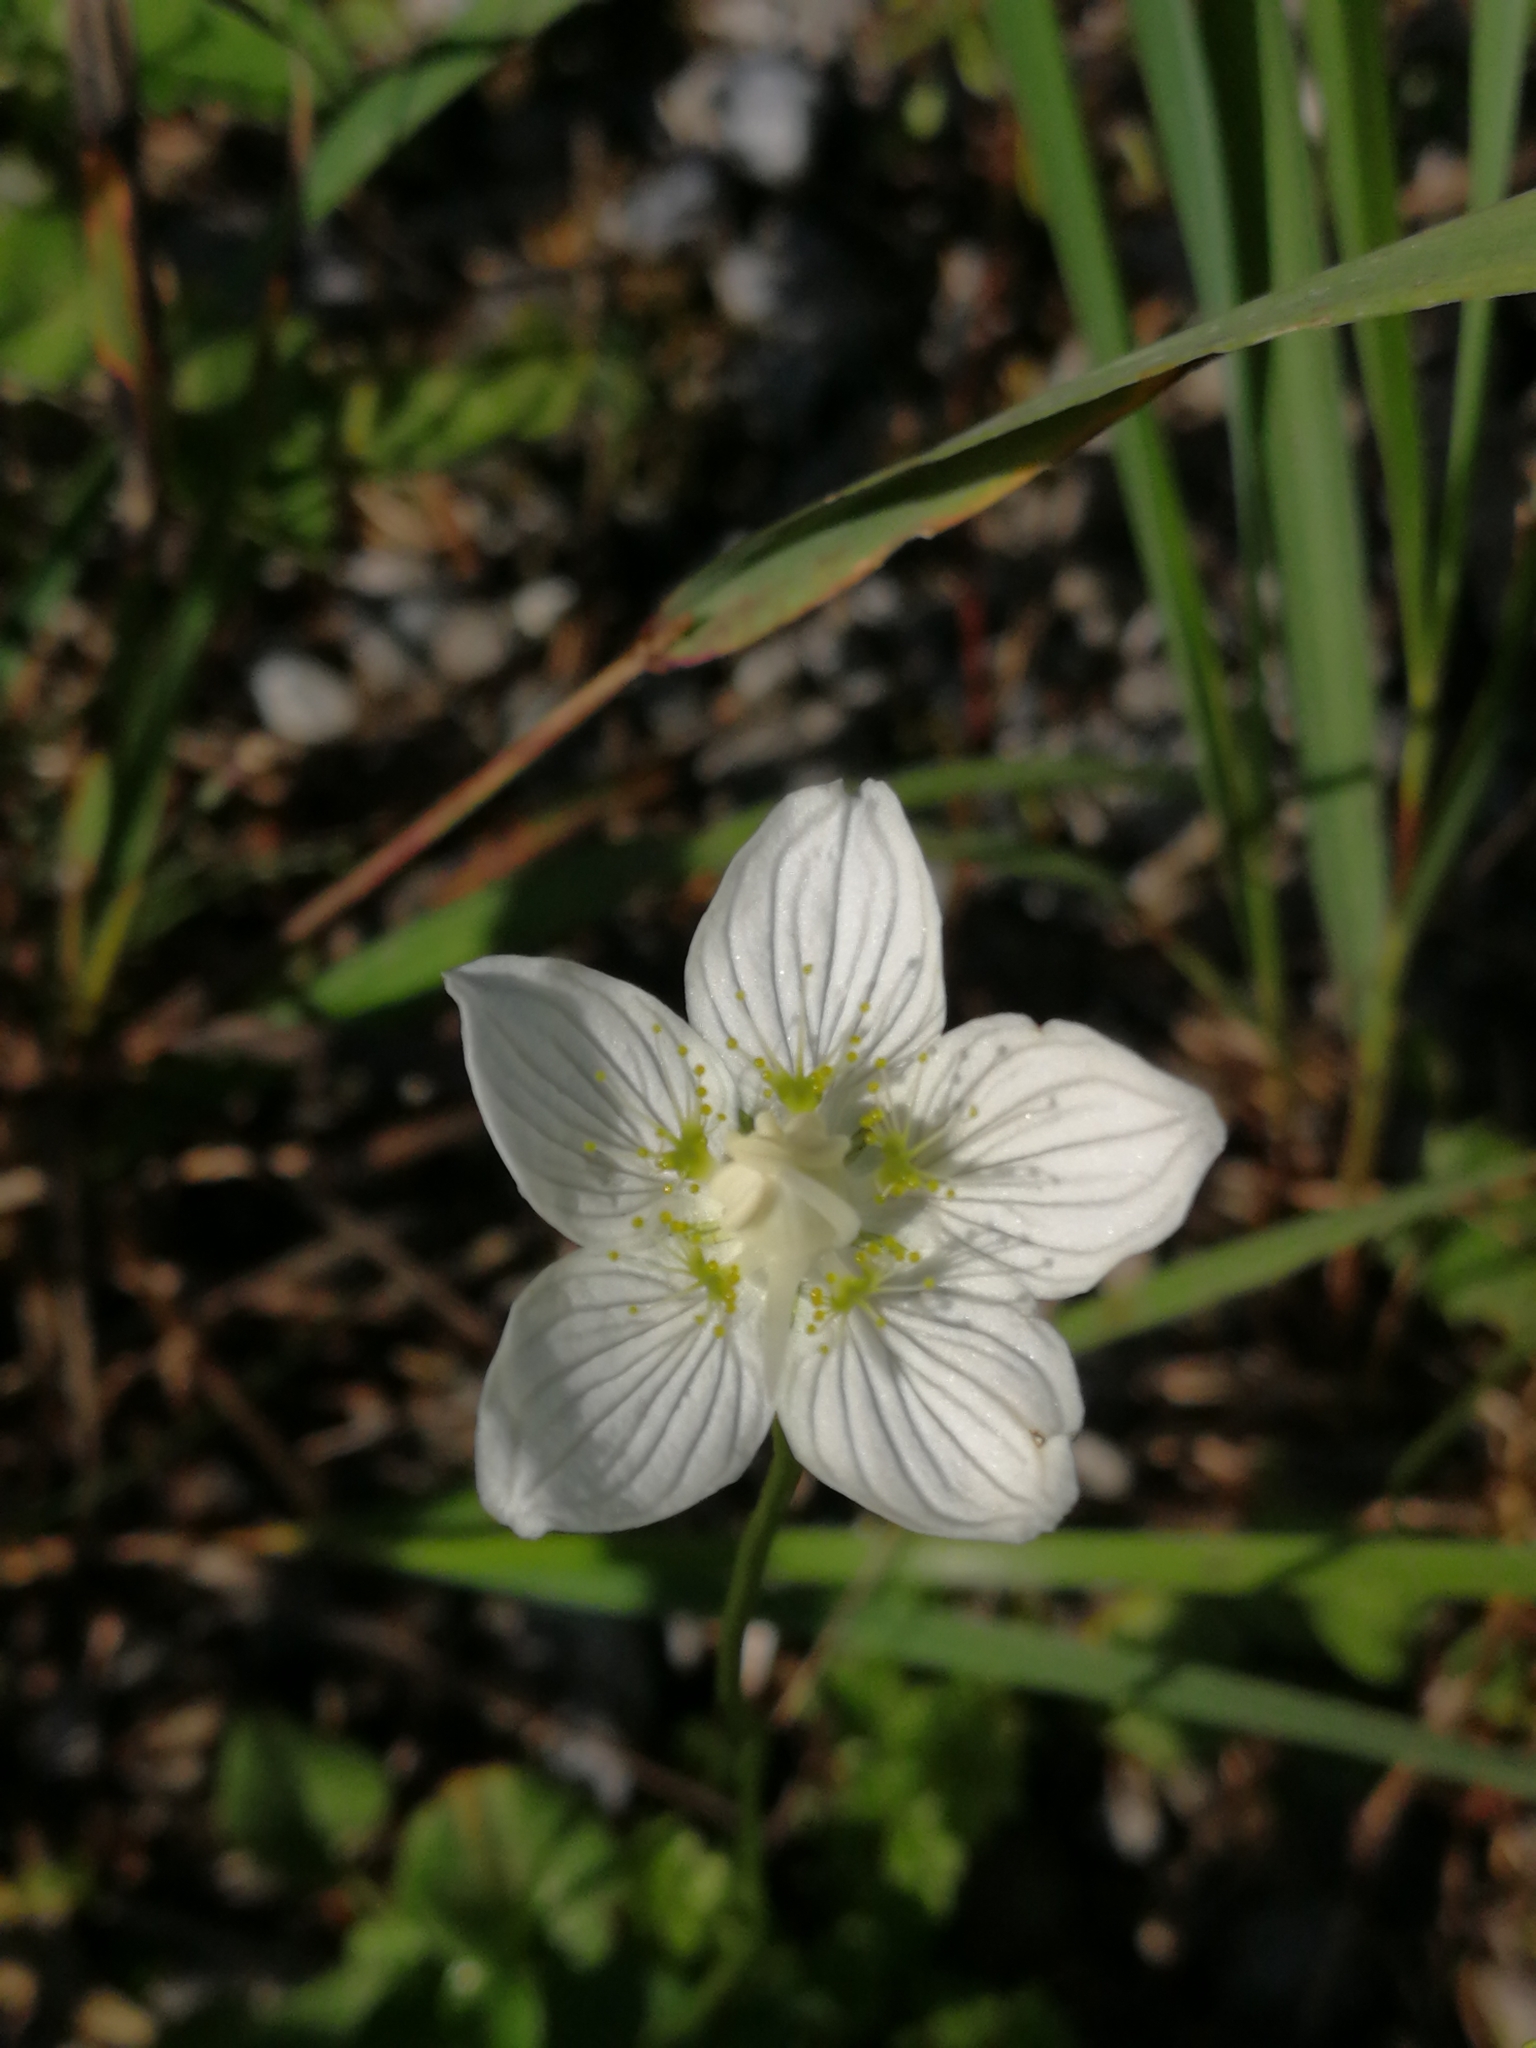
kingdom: Plantae
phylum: Tracheophyta
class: Magnoliopsida
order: Celastrales
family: Parnassiaceae
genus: Parnassia
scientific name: Parnassia palustris
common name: Grass-of-parnassus
